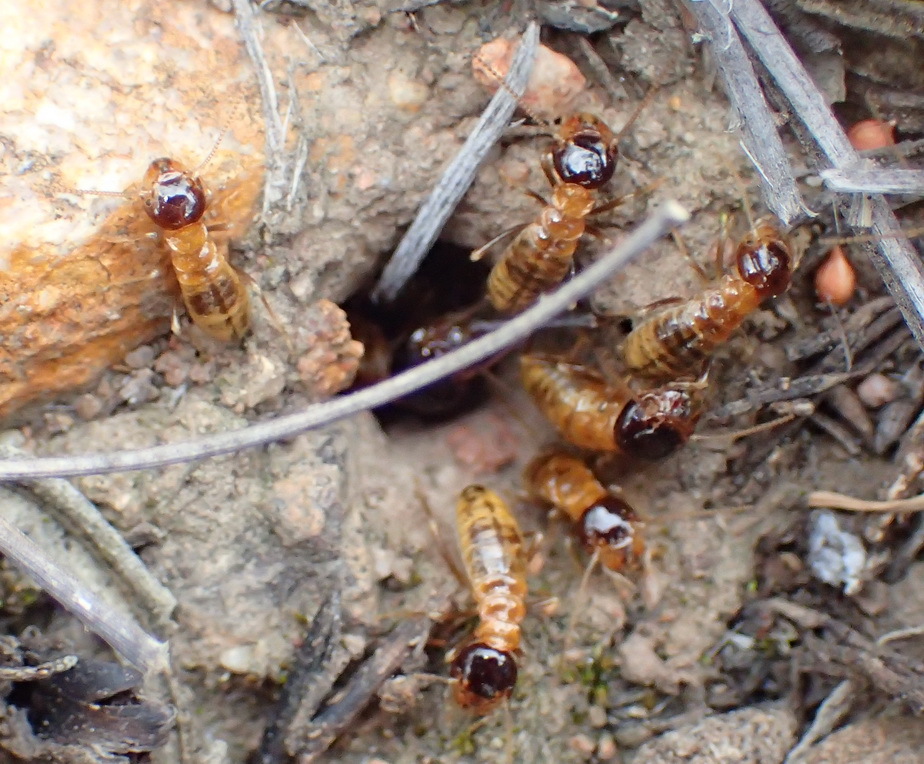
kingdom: Animalia
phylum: Arthropoda
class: Insecta
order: Blattodea
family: Hodotermitidae
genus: Microhodotermes
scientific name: Microhodotermes viator
